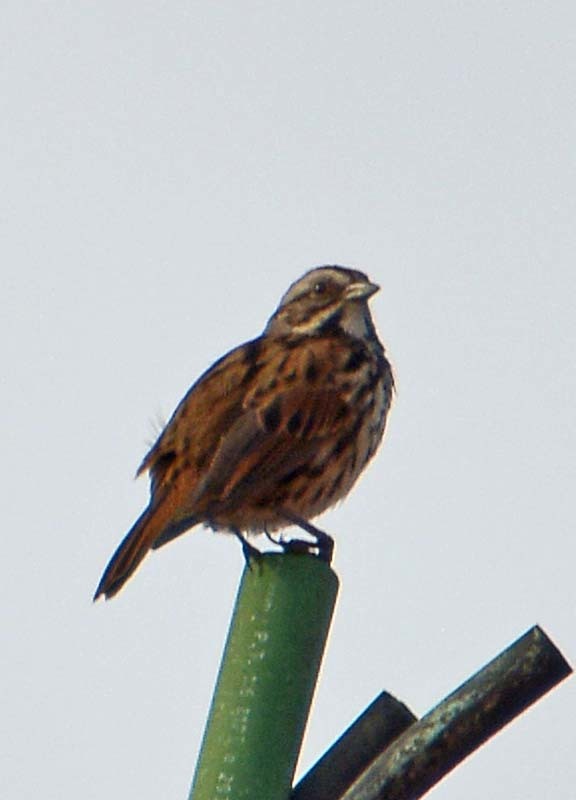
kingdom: Animalia
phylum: Chordata
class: Aves
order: Passeriformes
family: Passerellidae
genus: Melospiza
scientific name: Melospiza melodia
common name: Song sparrow
